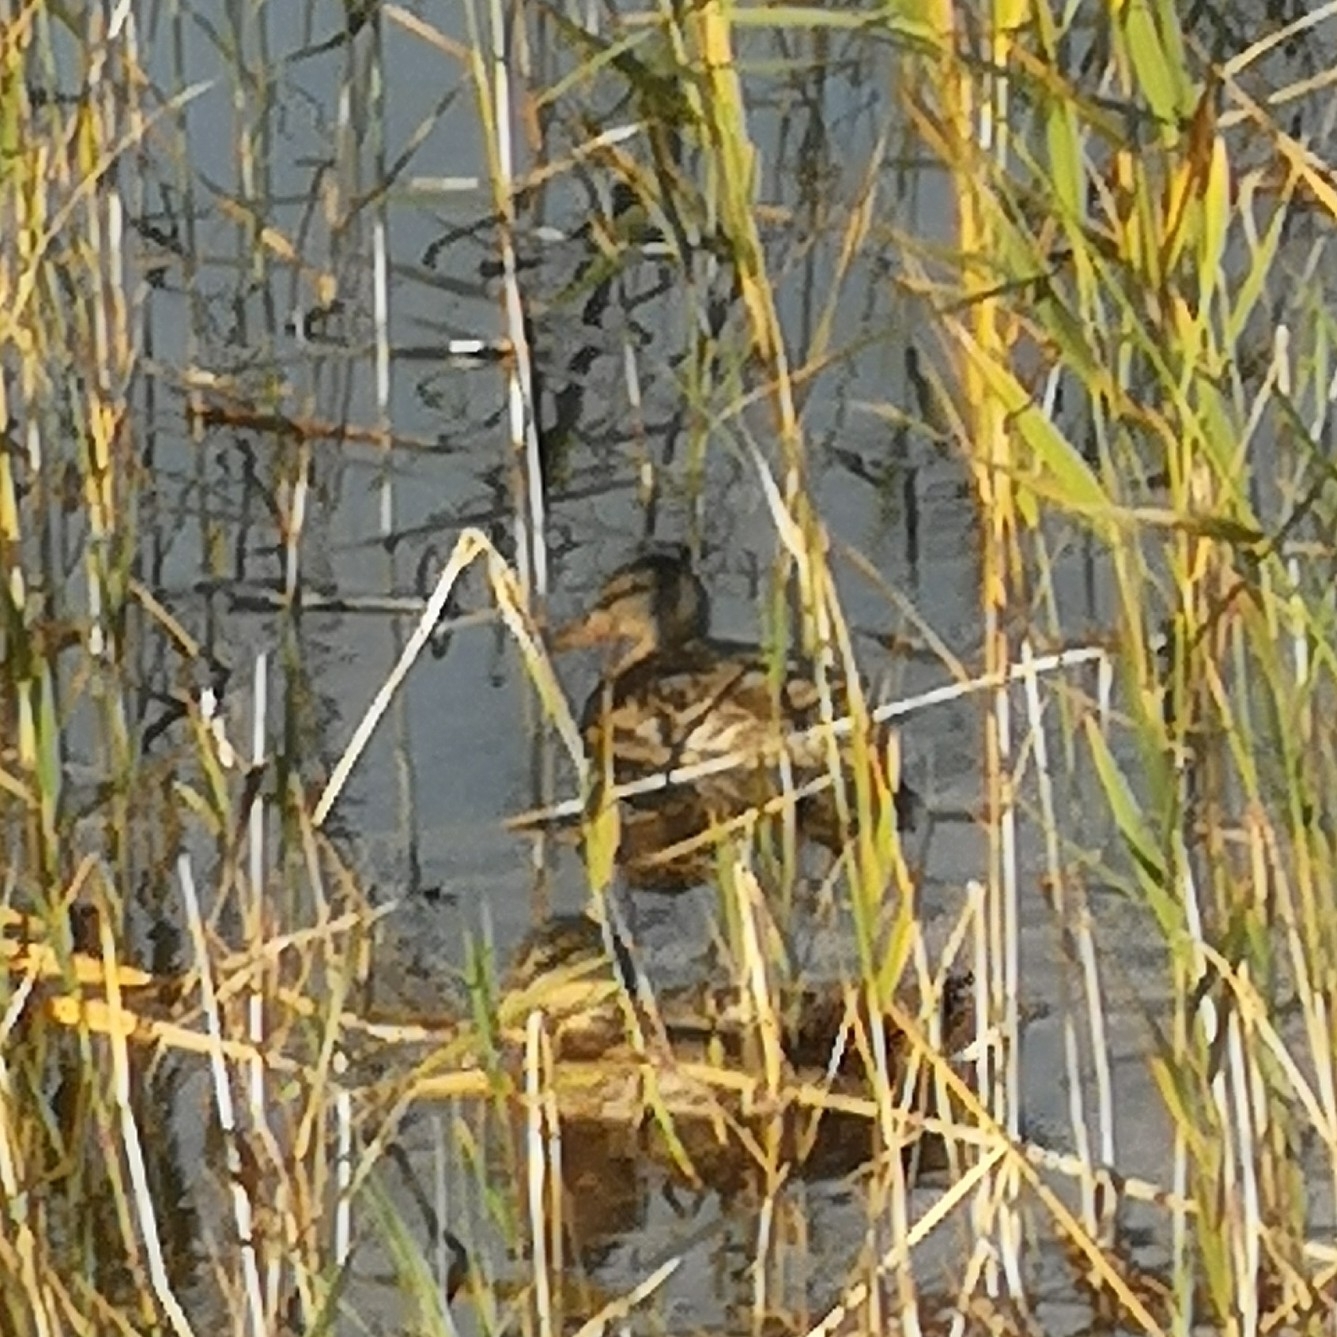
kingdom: Animalia
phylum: Chordata
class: Aves
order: Anseriformes
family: Anatidae
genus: Anas
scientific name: Anas platyrhynchos
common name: Mallard
